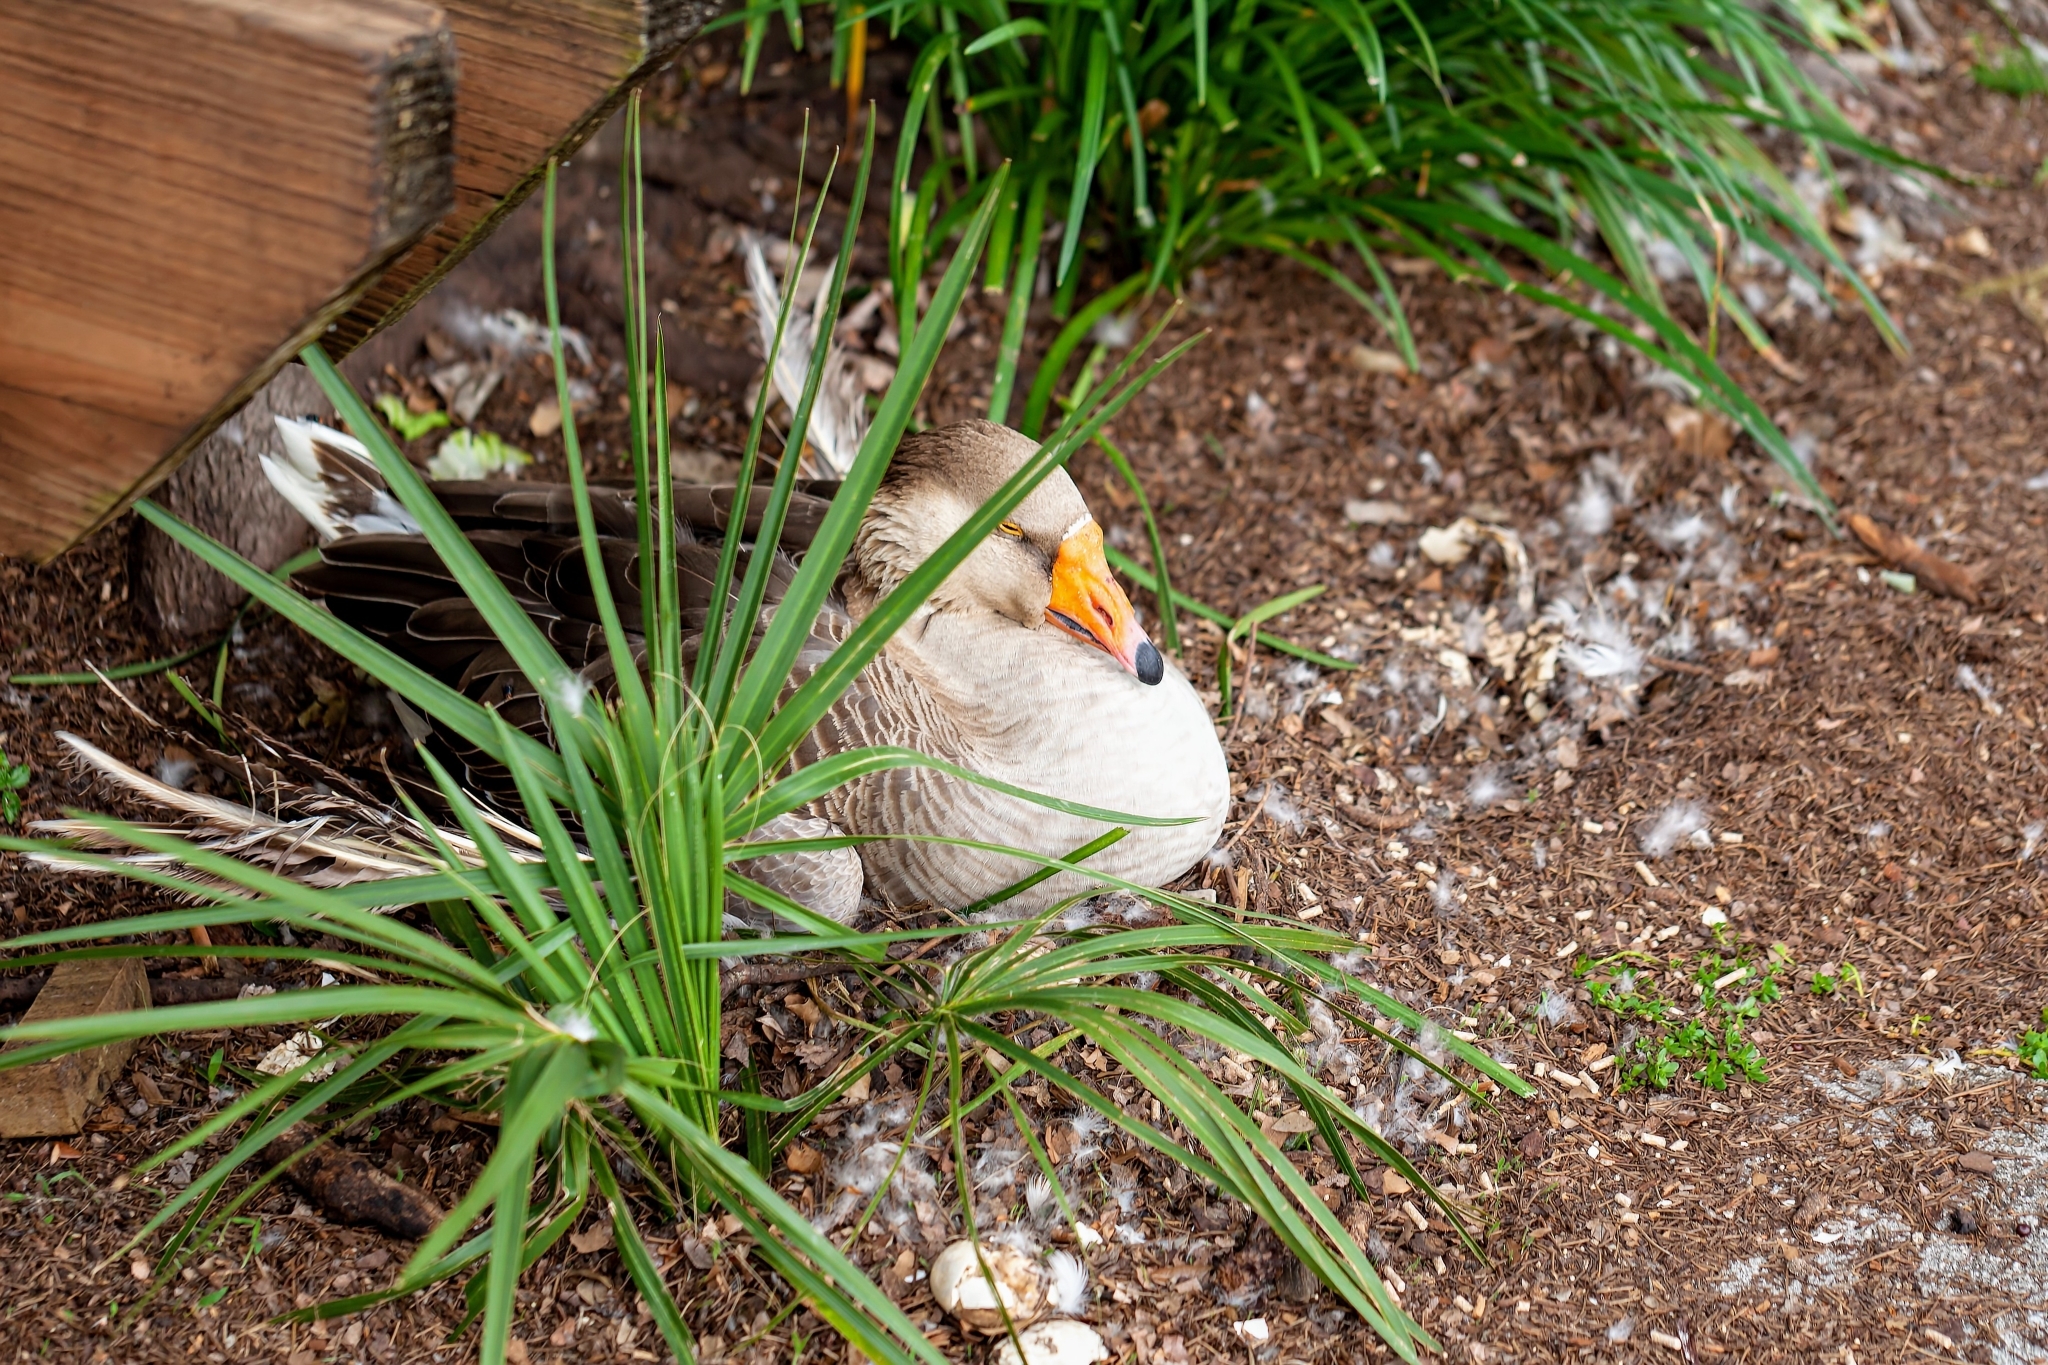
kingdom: Animalia
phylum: Chordata
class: Aves
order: Anseriformes
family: Anatidae
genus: Anser
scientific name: Anser
